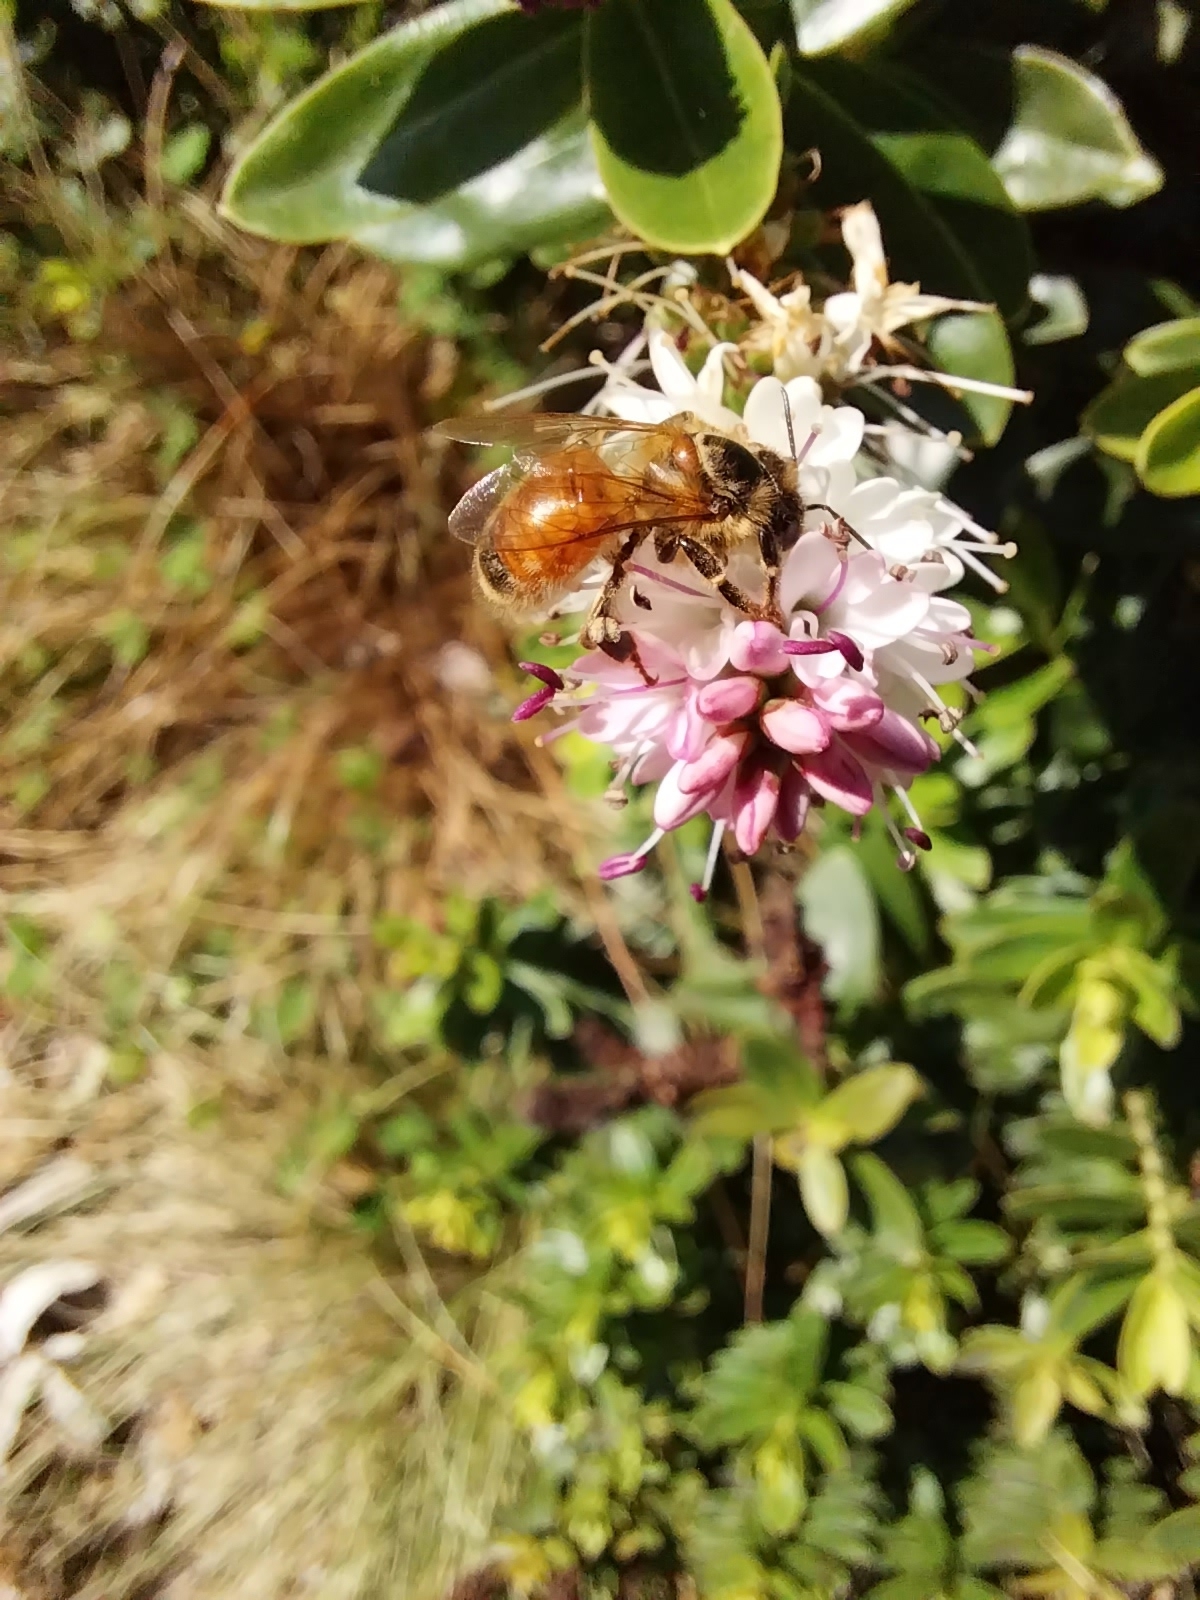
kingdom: Animalia
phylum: Arthropoda
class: Insecta
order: Hymenoptera
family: Apidae
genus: Apis
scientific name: Apis mellifera
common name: Honey bee
